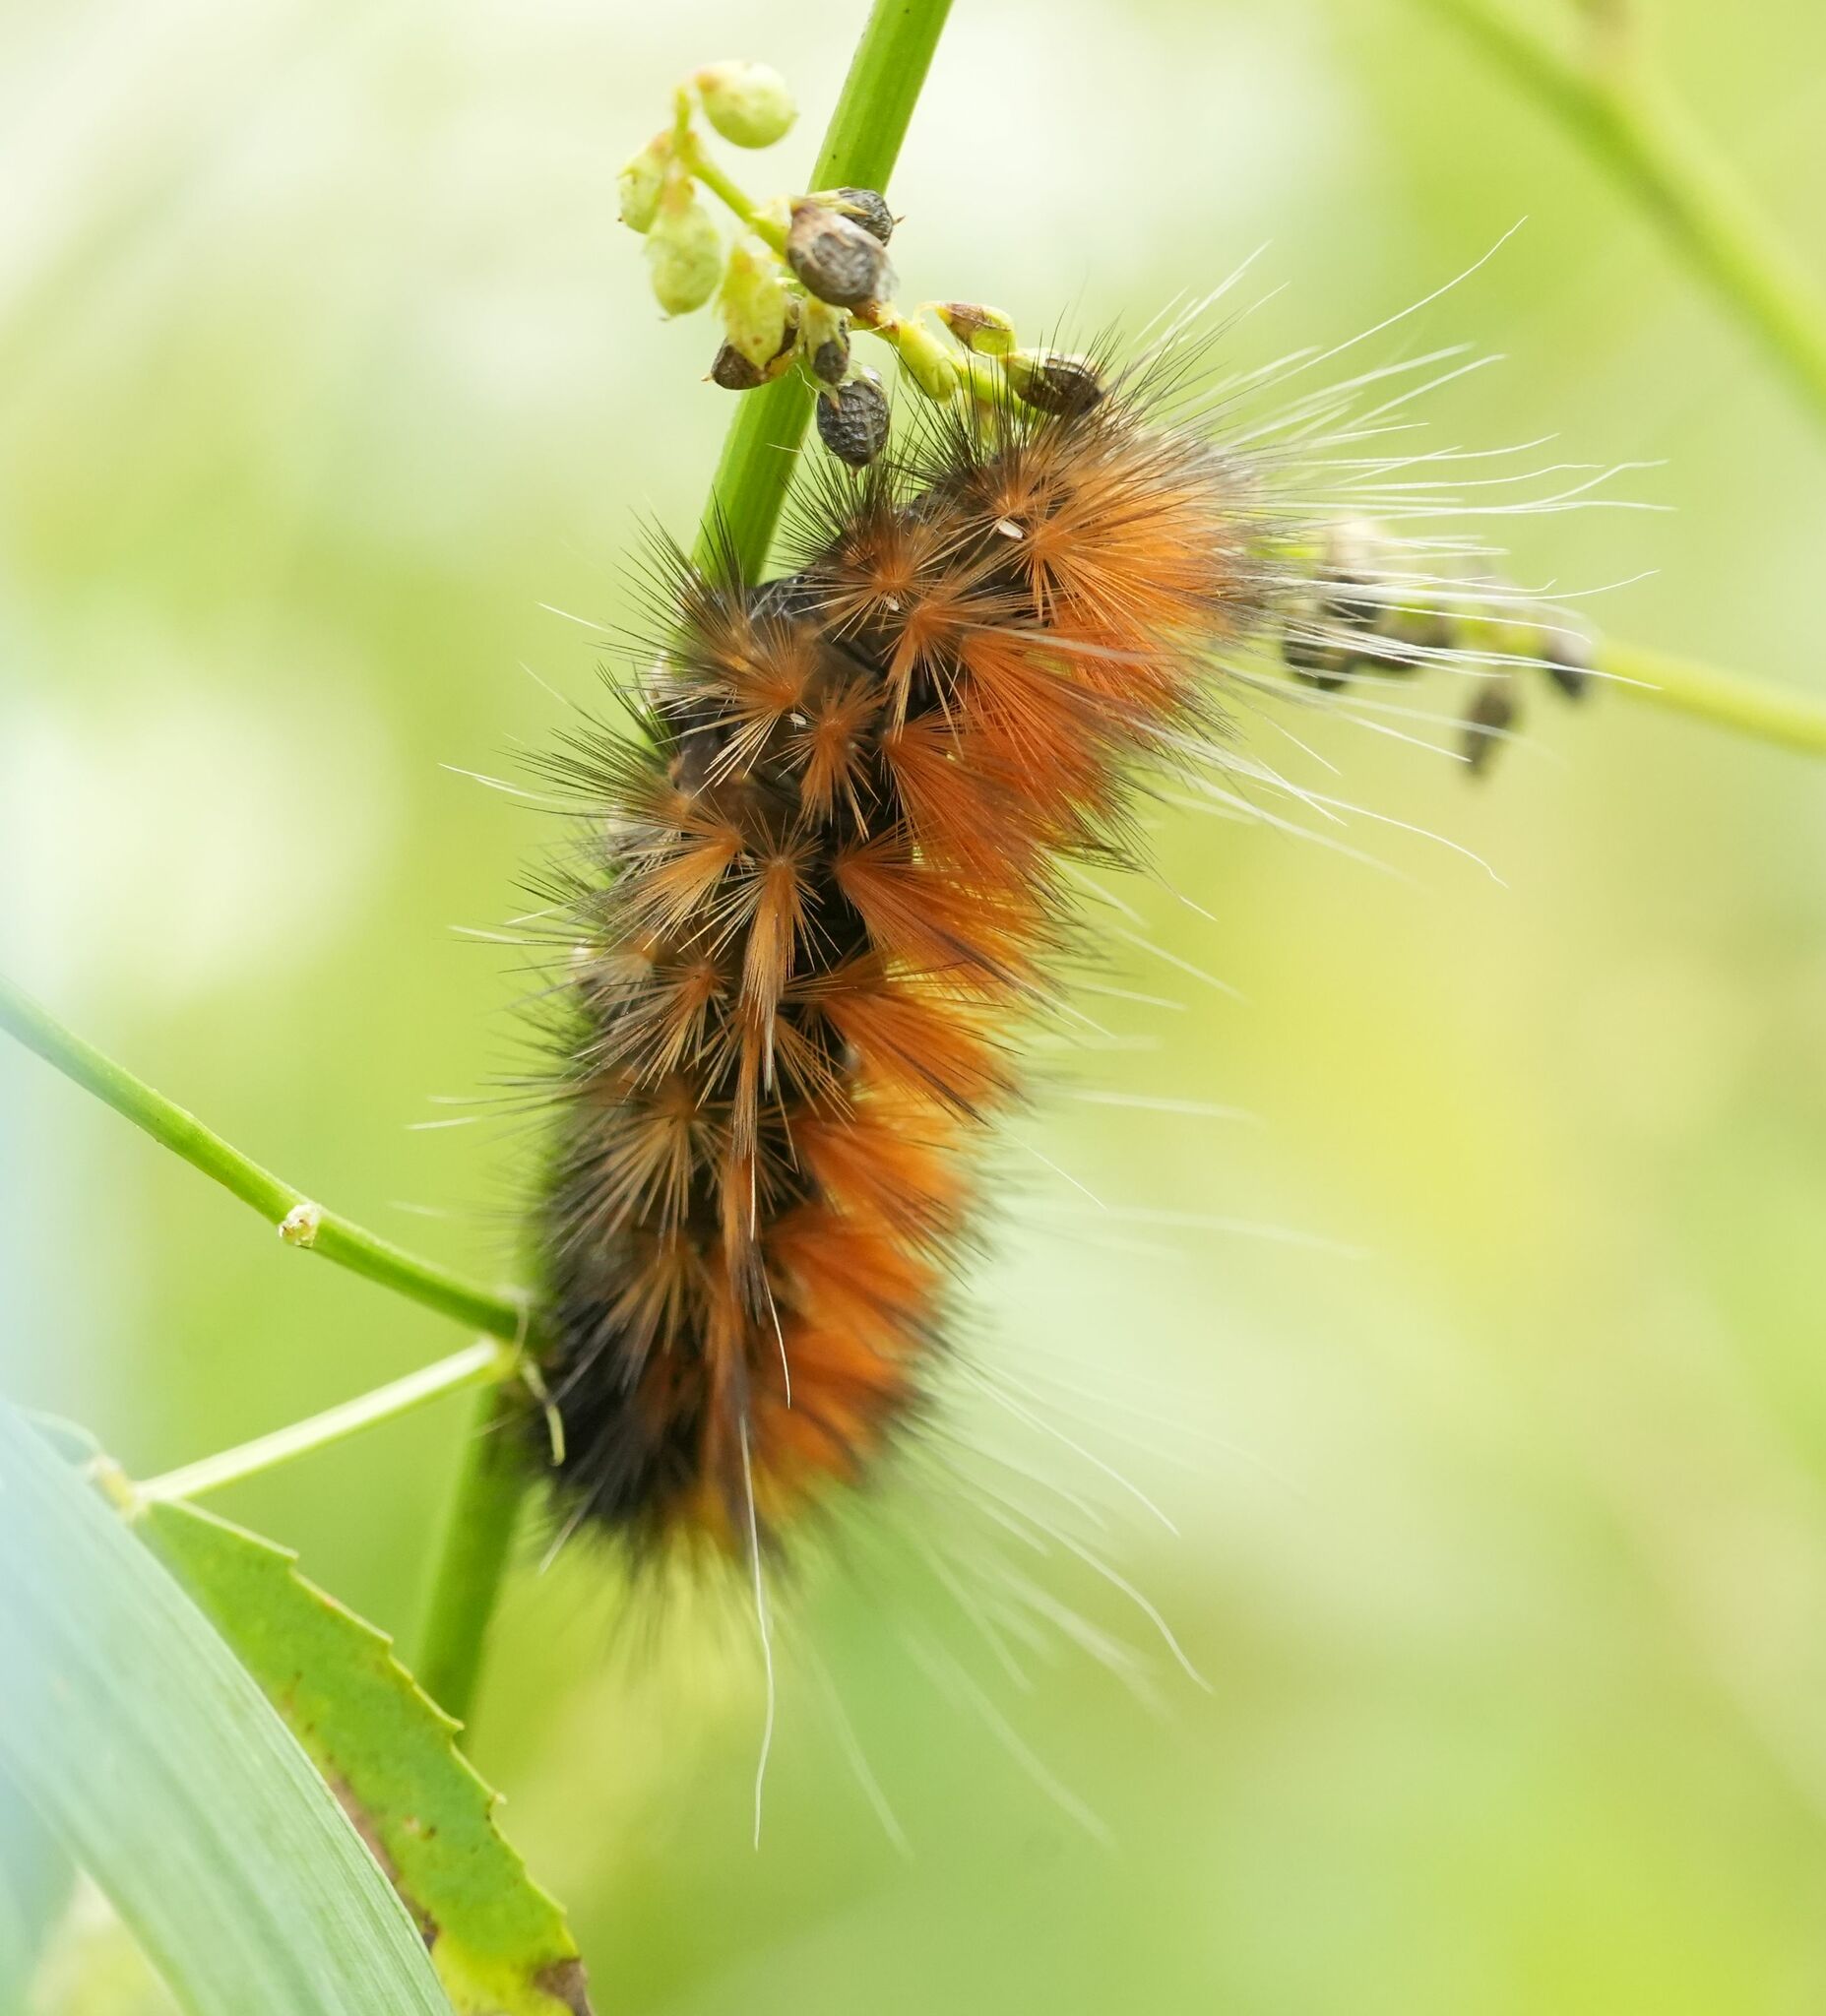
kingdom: Animalia
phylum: Arthropoda
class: Insecta
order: Lepidoptera
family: Erebidae
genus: Spilosoma
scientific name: Spilosoma virginica
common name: Virginia tiger moth
